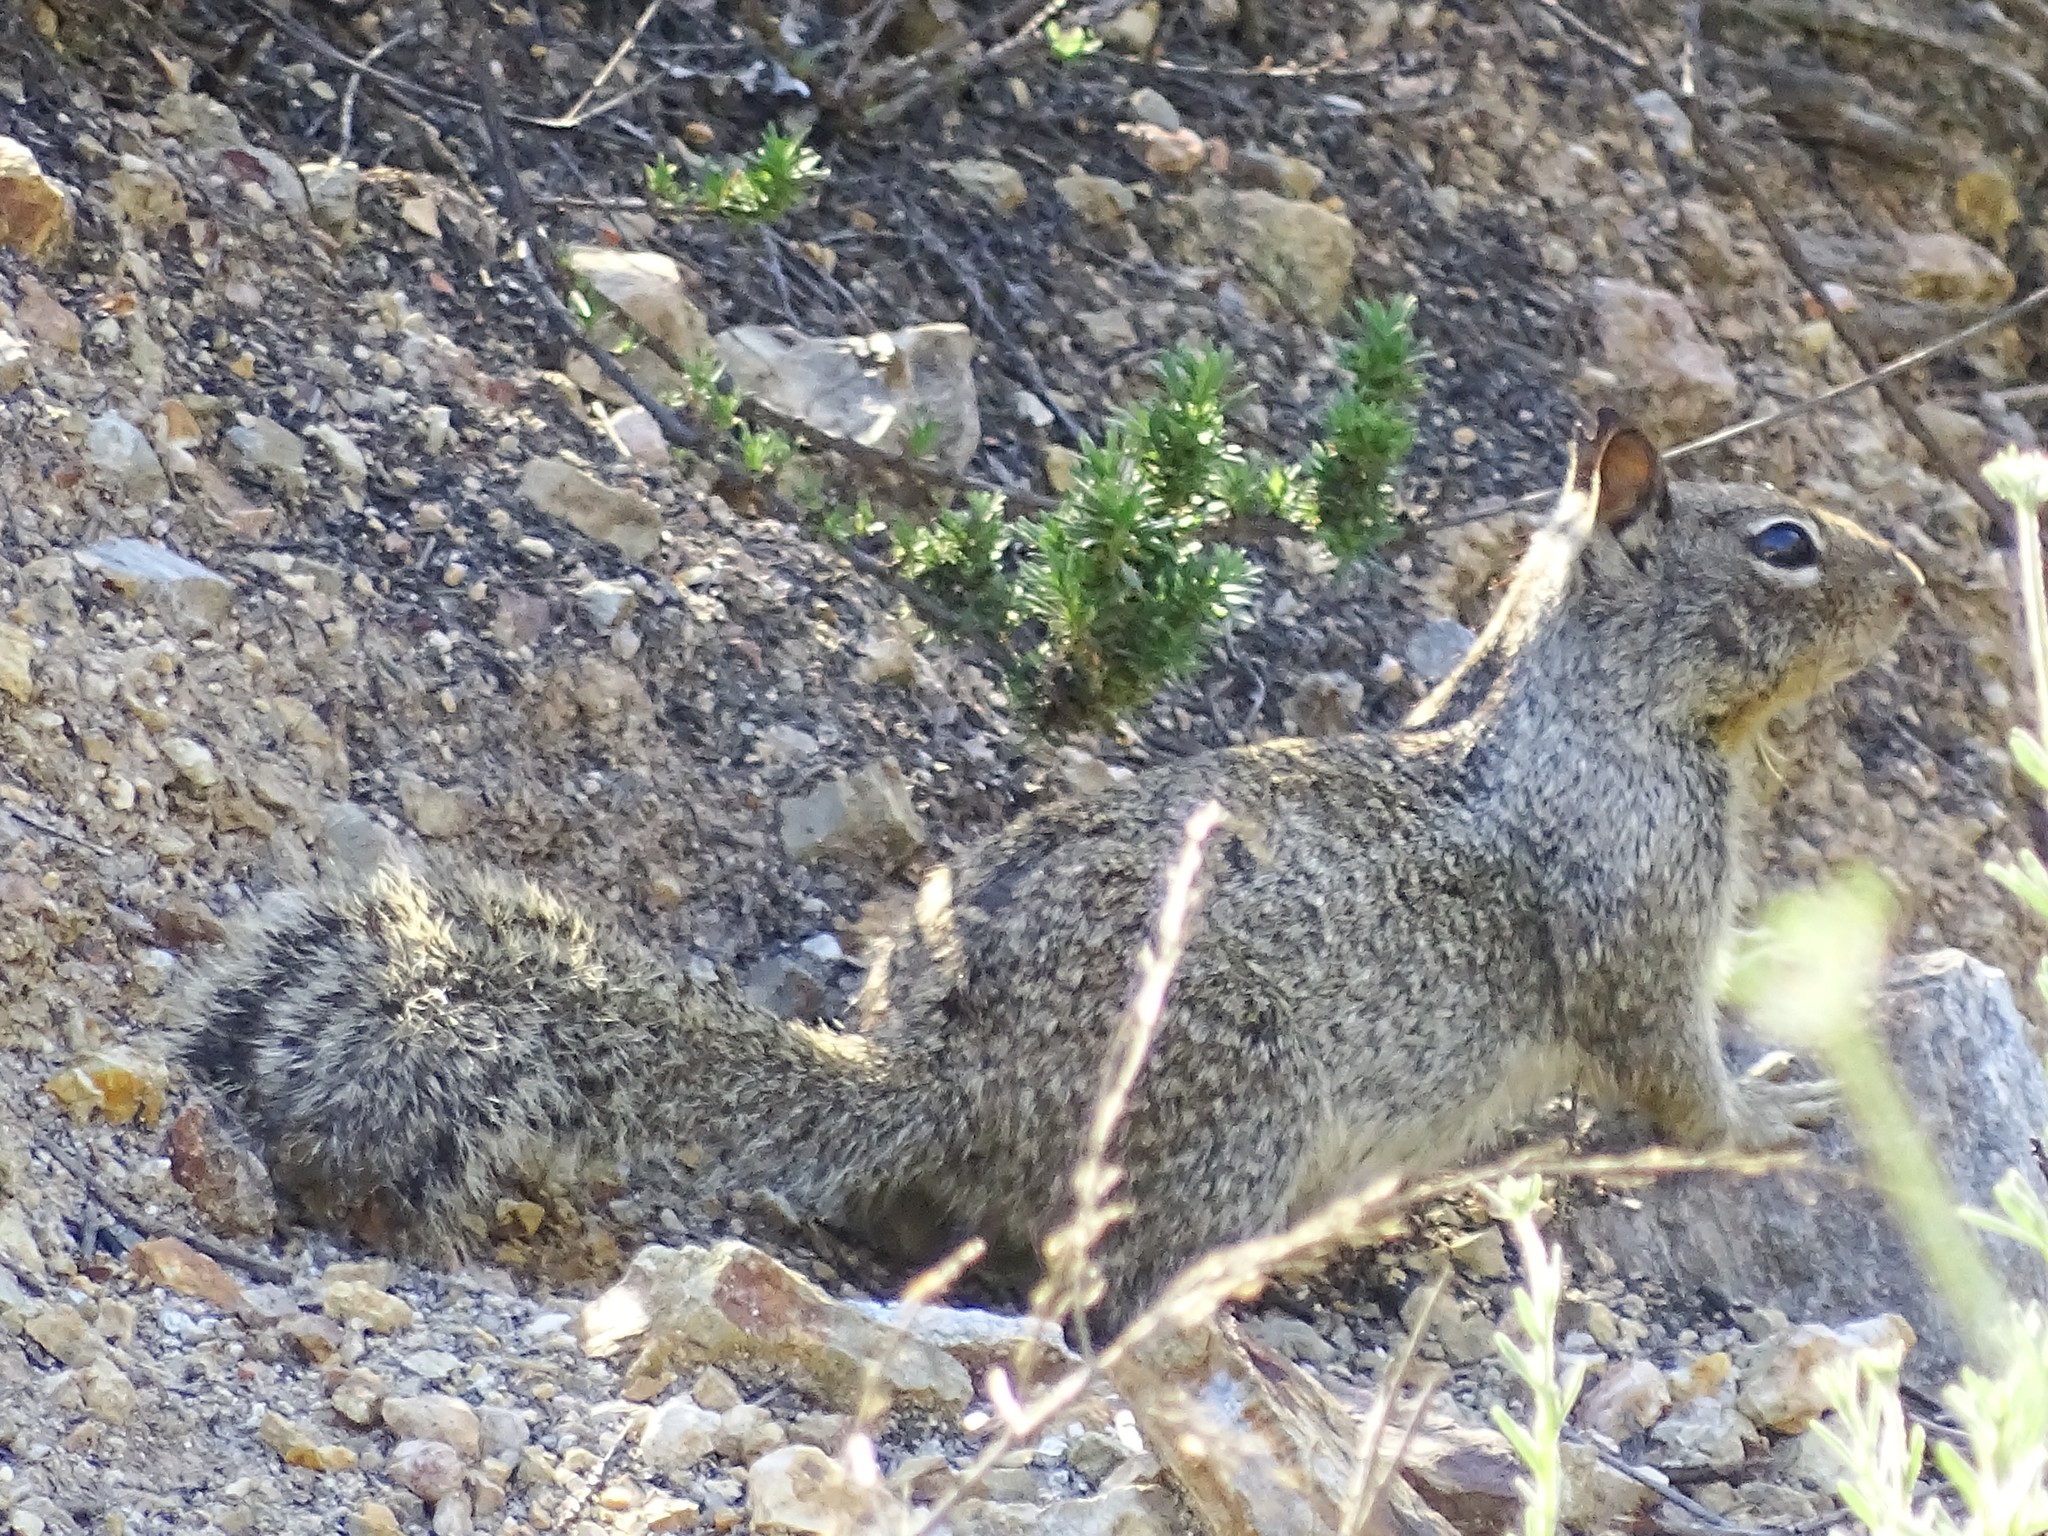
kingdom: Animalia
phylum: Chordata
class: Mammalia
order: Rodentia
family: Sciuridae
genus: Otospermophilus
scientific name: Otospermophilus beecheyi
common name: California ground squirrel
